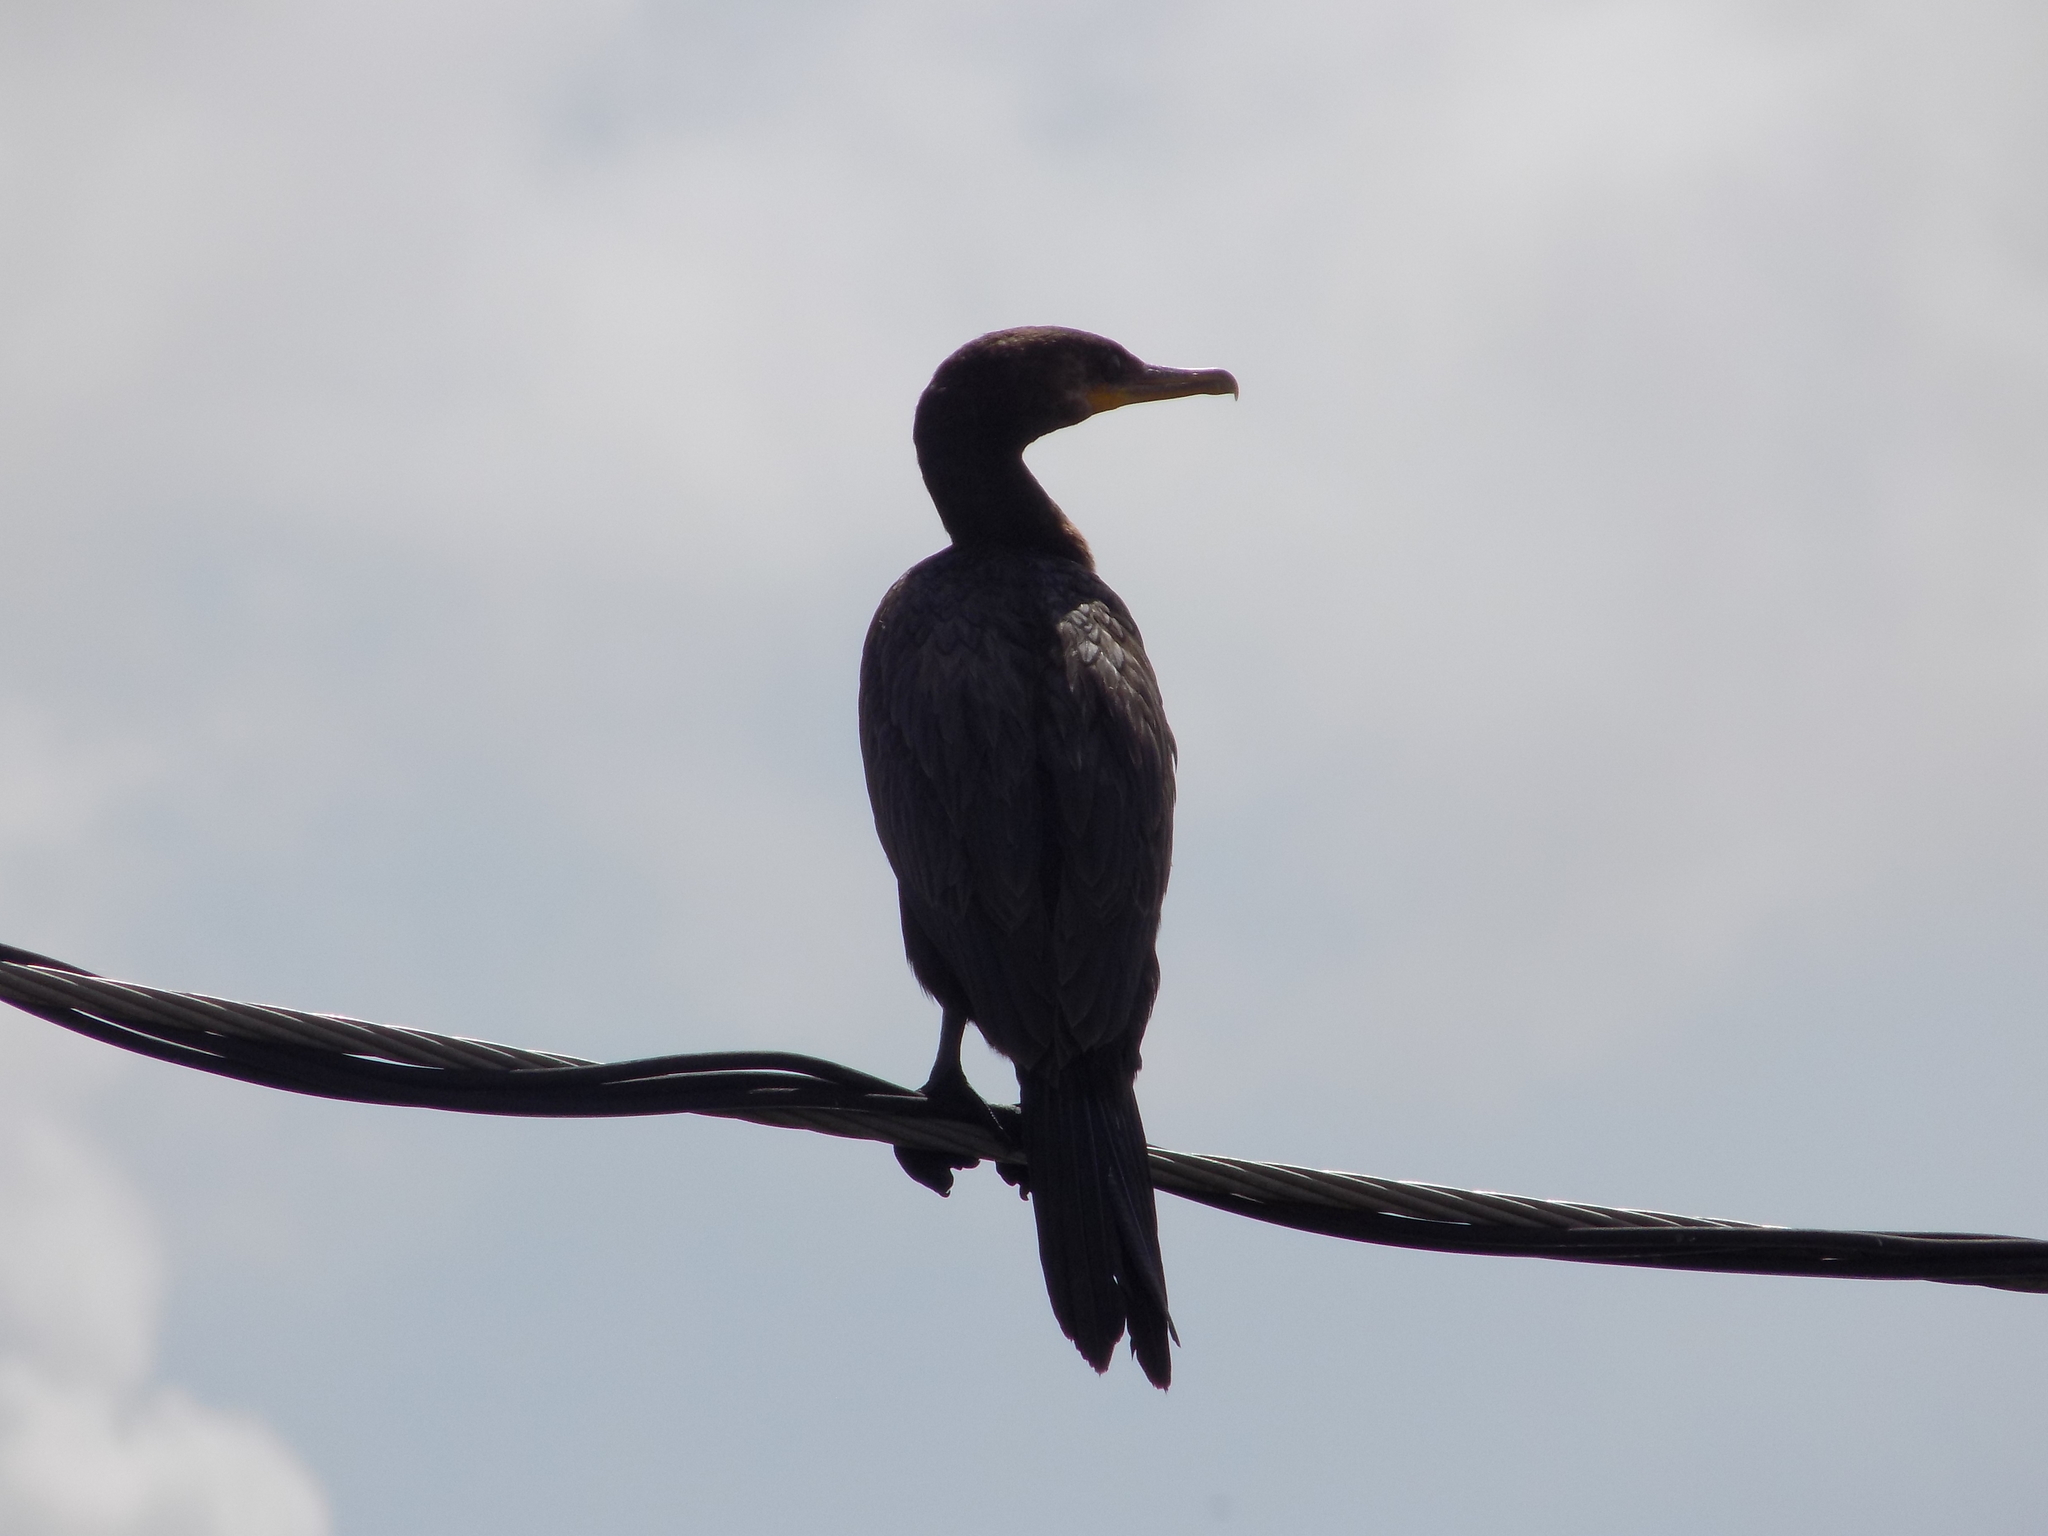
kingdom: Animalia
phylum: Chordata
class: Aves
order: Suliformes
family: Phalacrocoracidae
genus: Phalacrocorax
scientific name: Phalacrocorax brasilianus
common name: Neotropic cormorant
